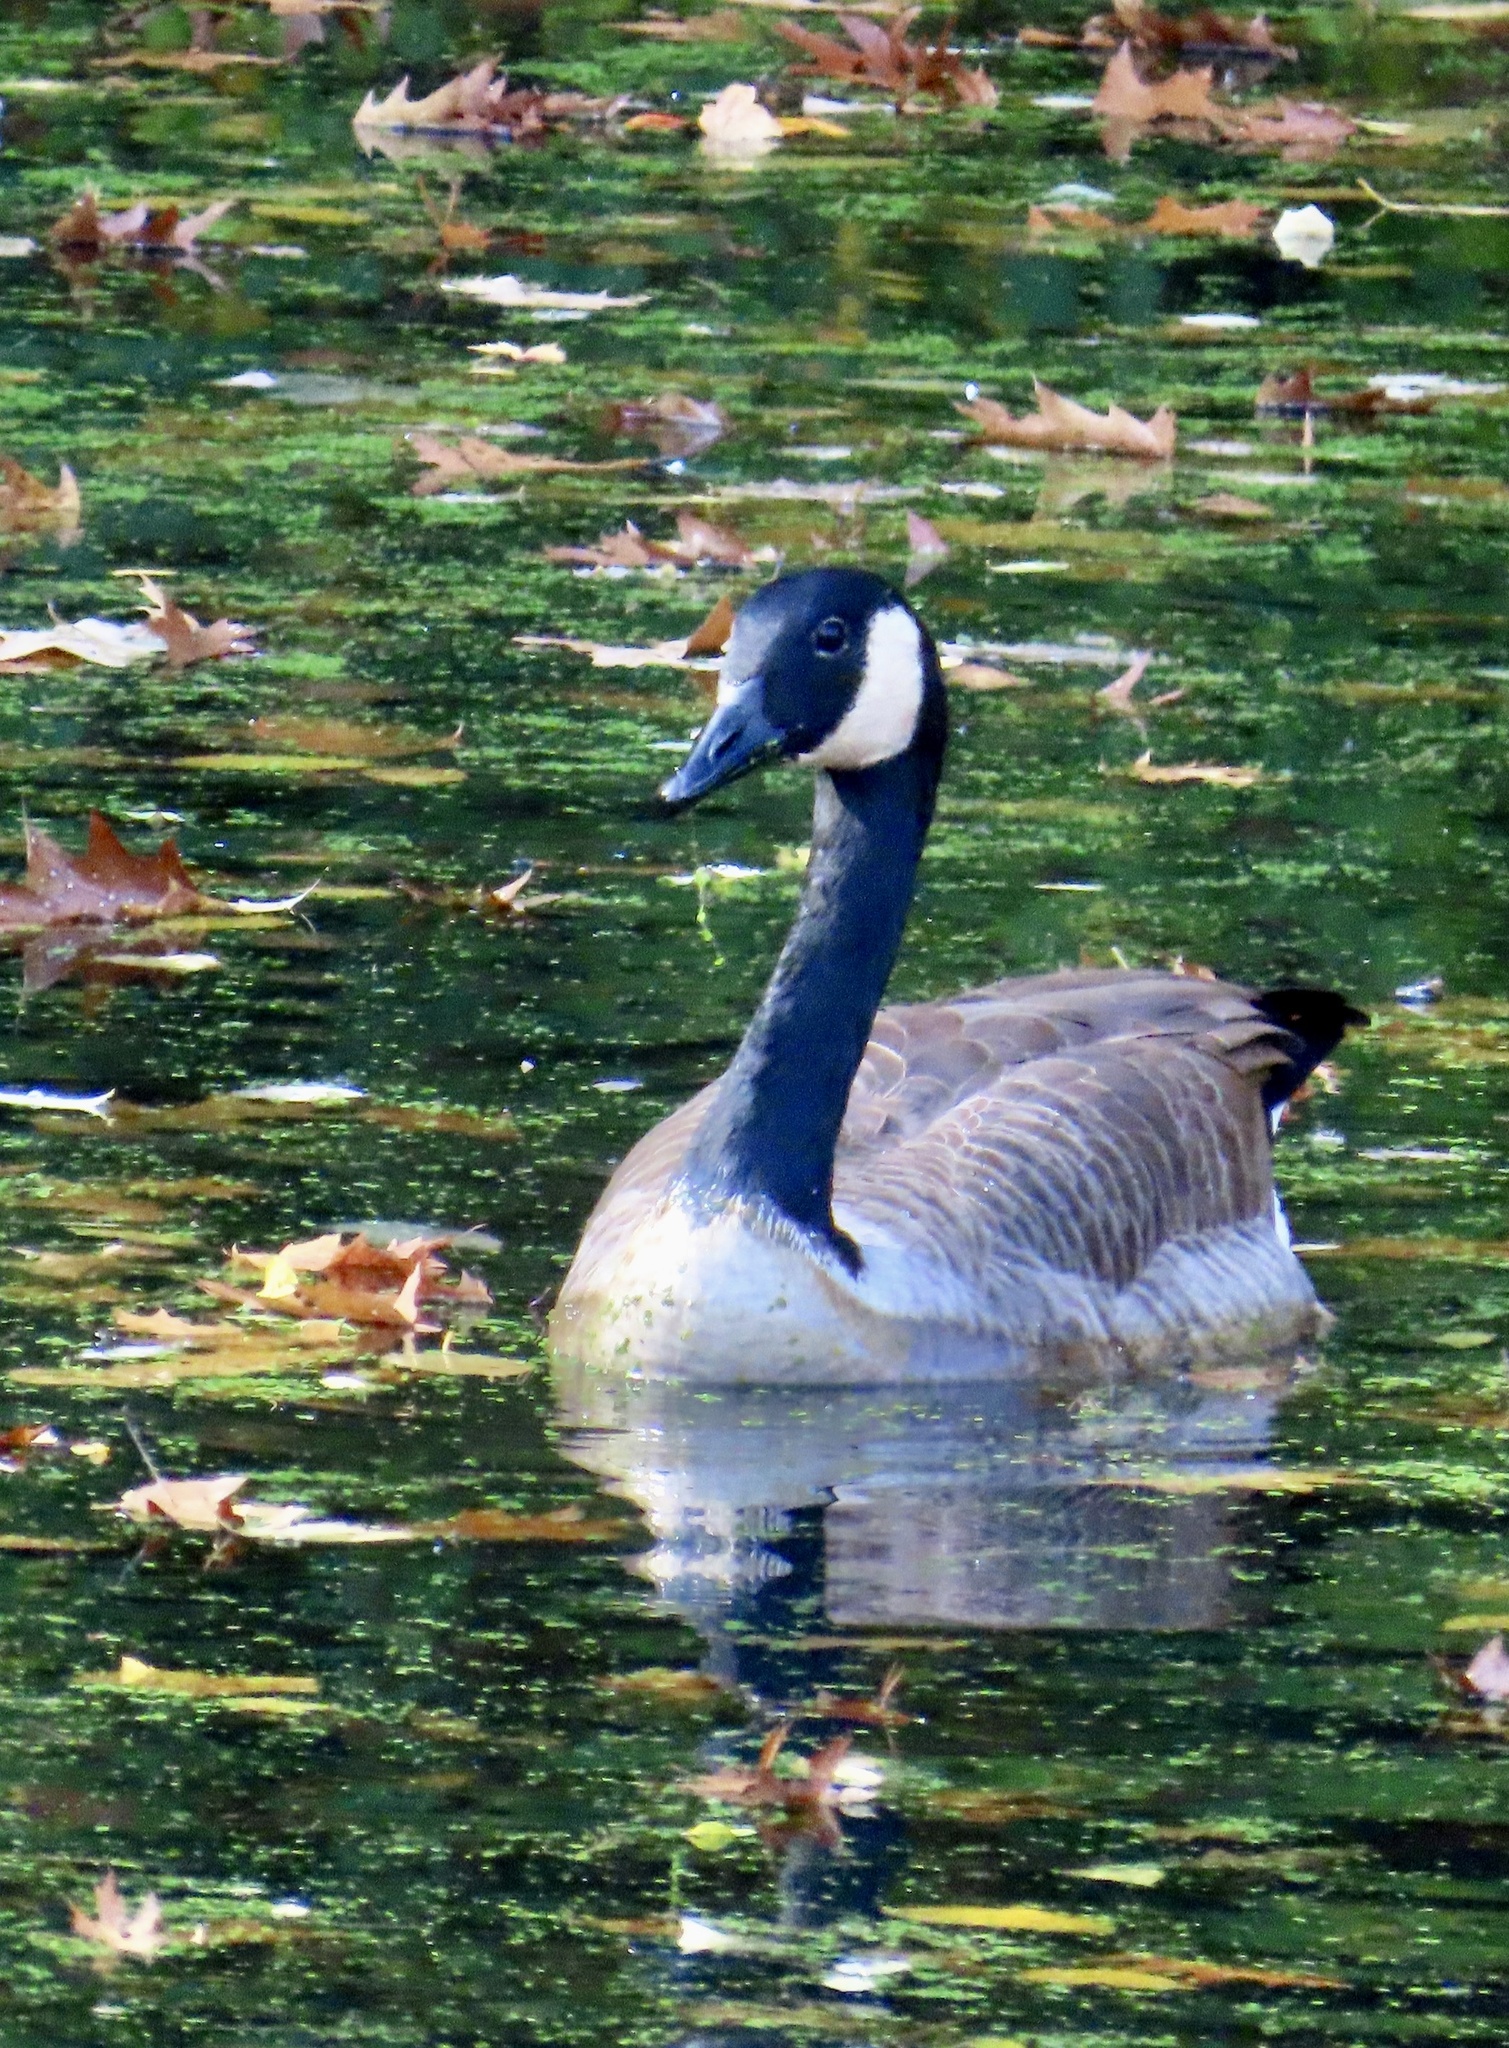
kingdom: Animalia
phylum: Chordata
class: Aves
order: Anseriformes
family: Anatidae
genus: Branta
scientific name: Branta canadensis
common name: Canada goose
